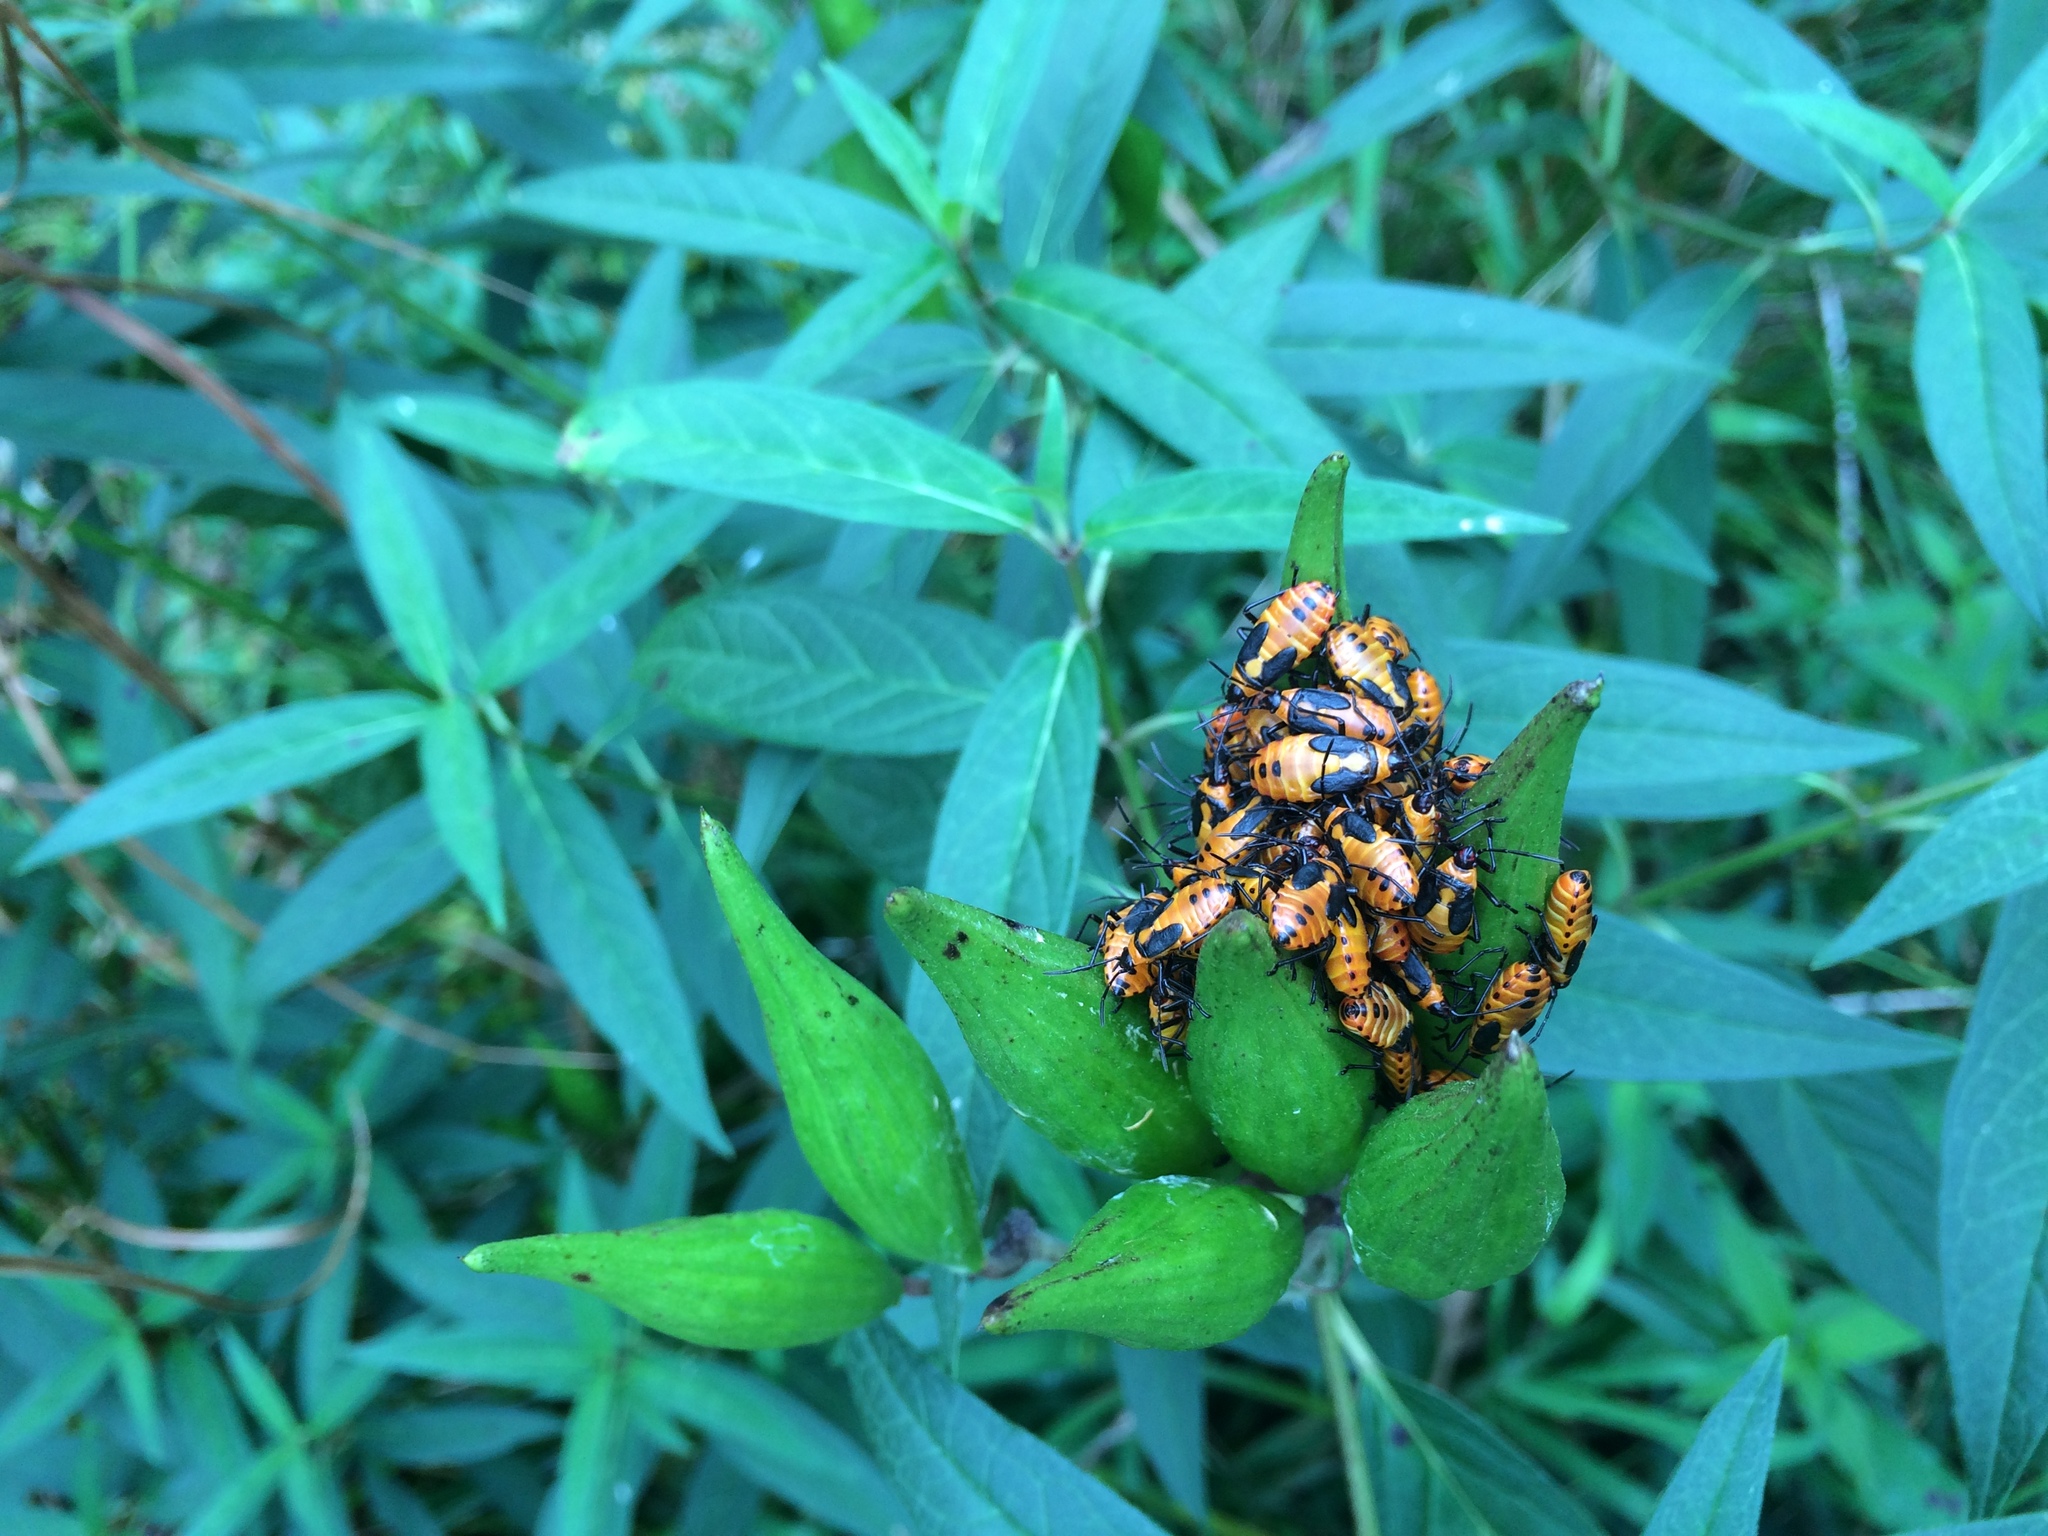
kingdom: Animalia
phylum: Arthropoda
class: Insecta
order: Hemiptera
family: Lygaeidae
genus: Oncopeltus
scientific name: Oncopeltus fasciatus
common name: Large milkweed bug
